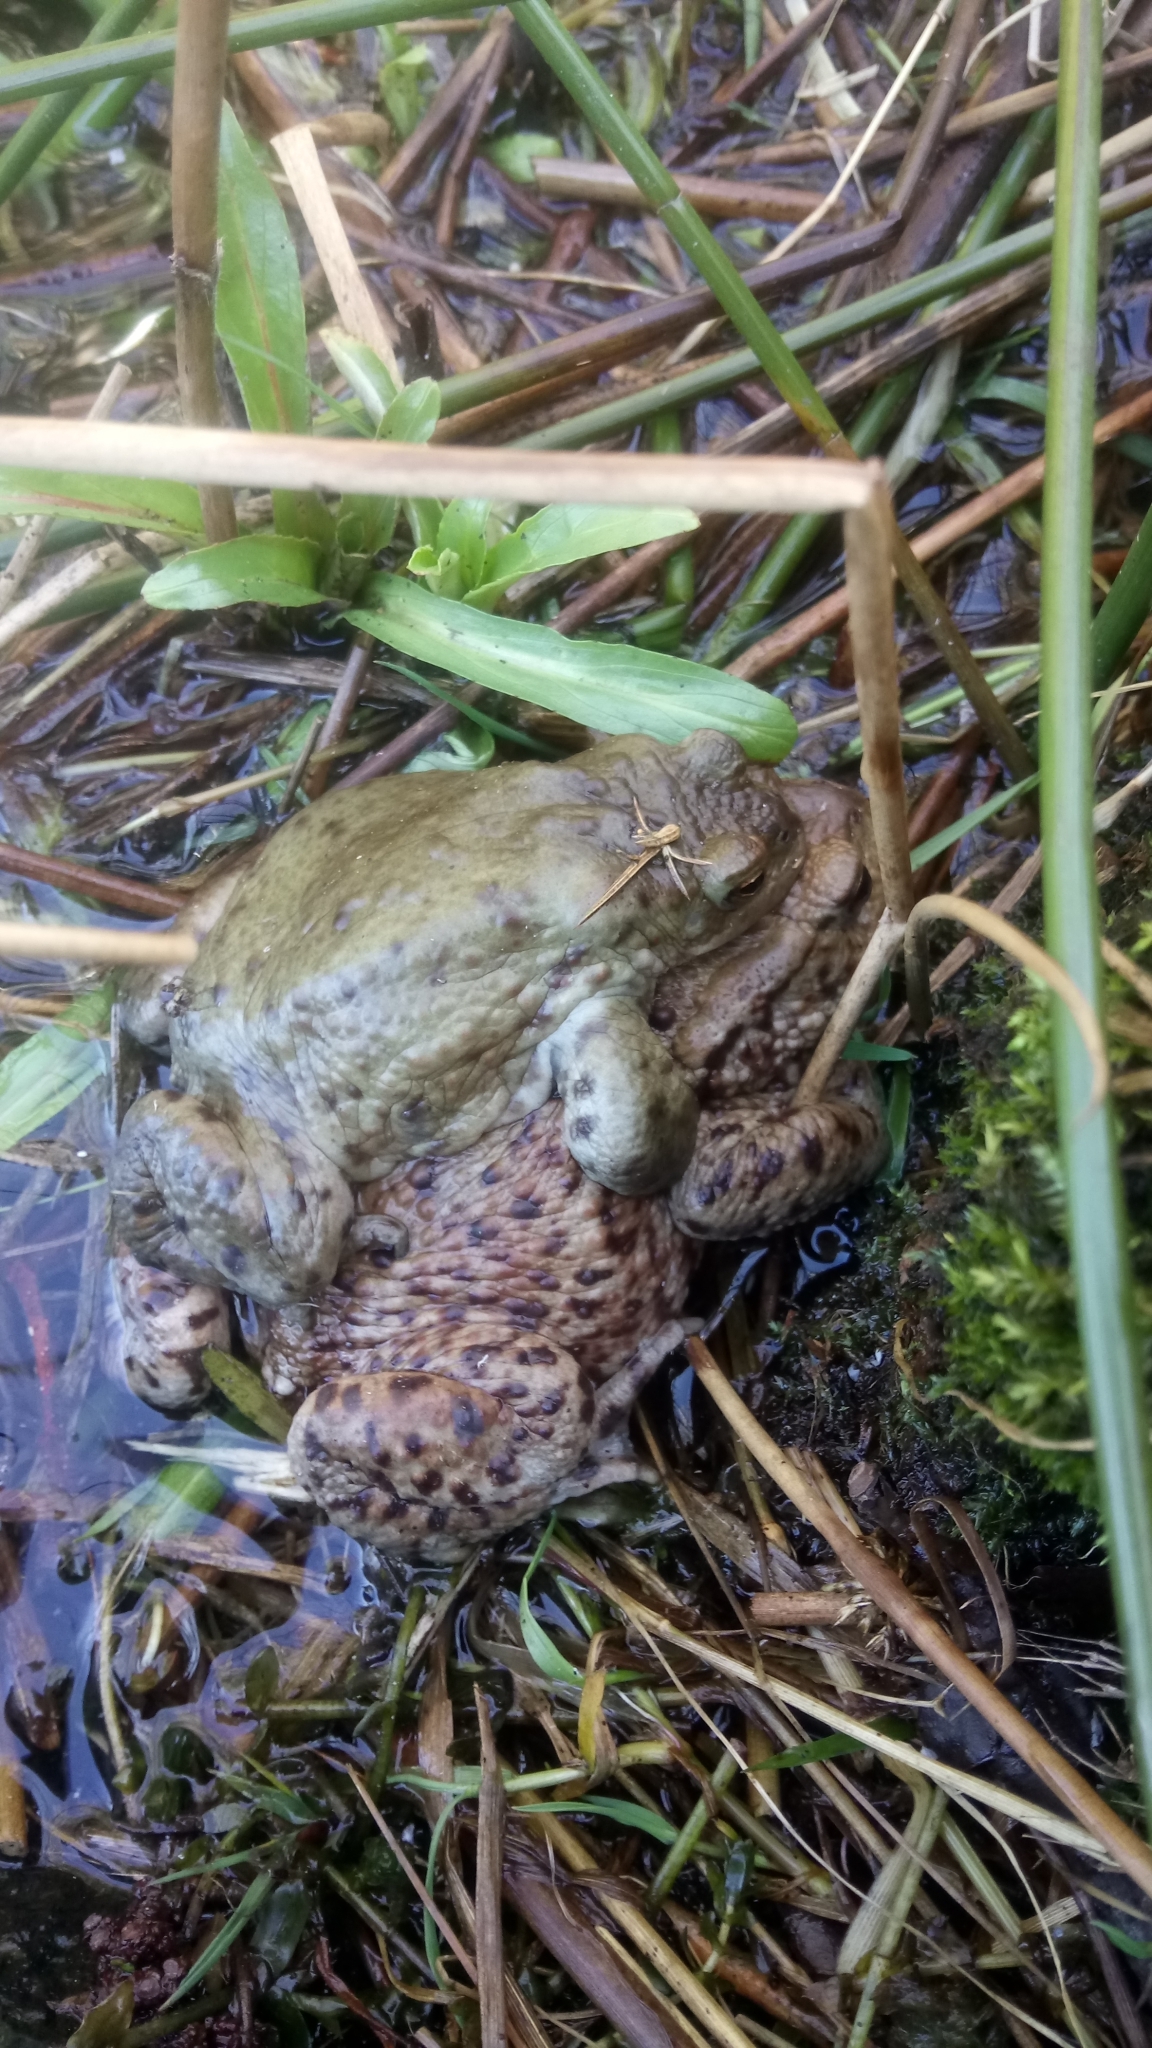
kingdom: Animalia
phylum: Chordata
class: Amphibia
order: Anura
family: Bufonidae
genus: Bufo
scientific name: Bufo bufo
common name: Common toad
